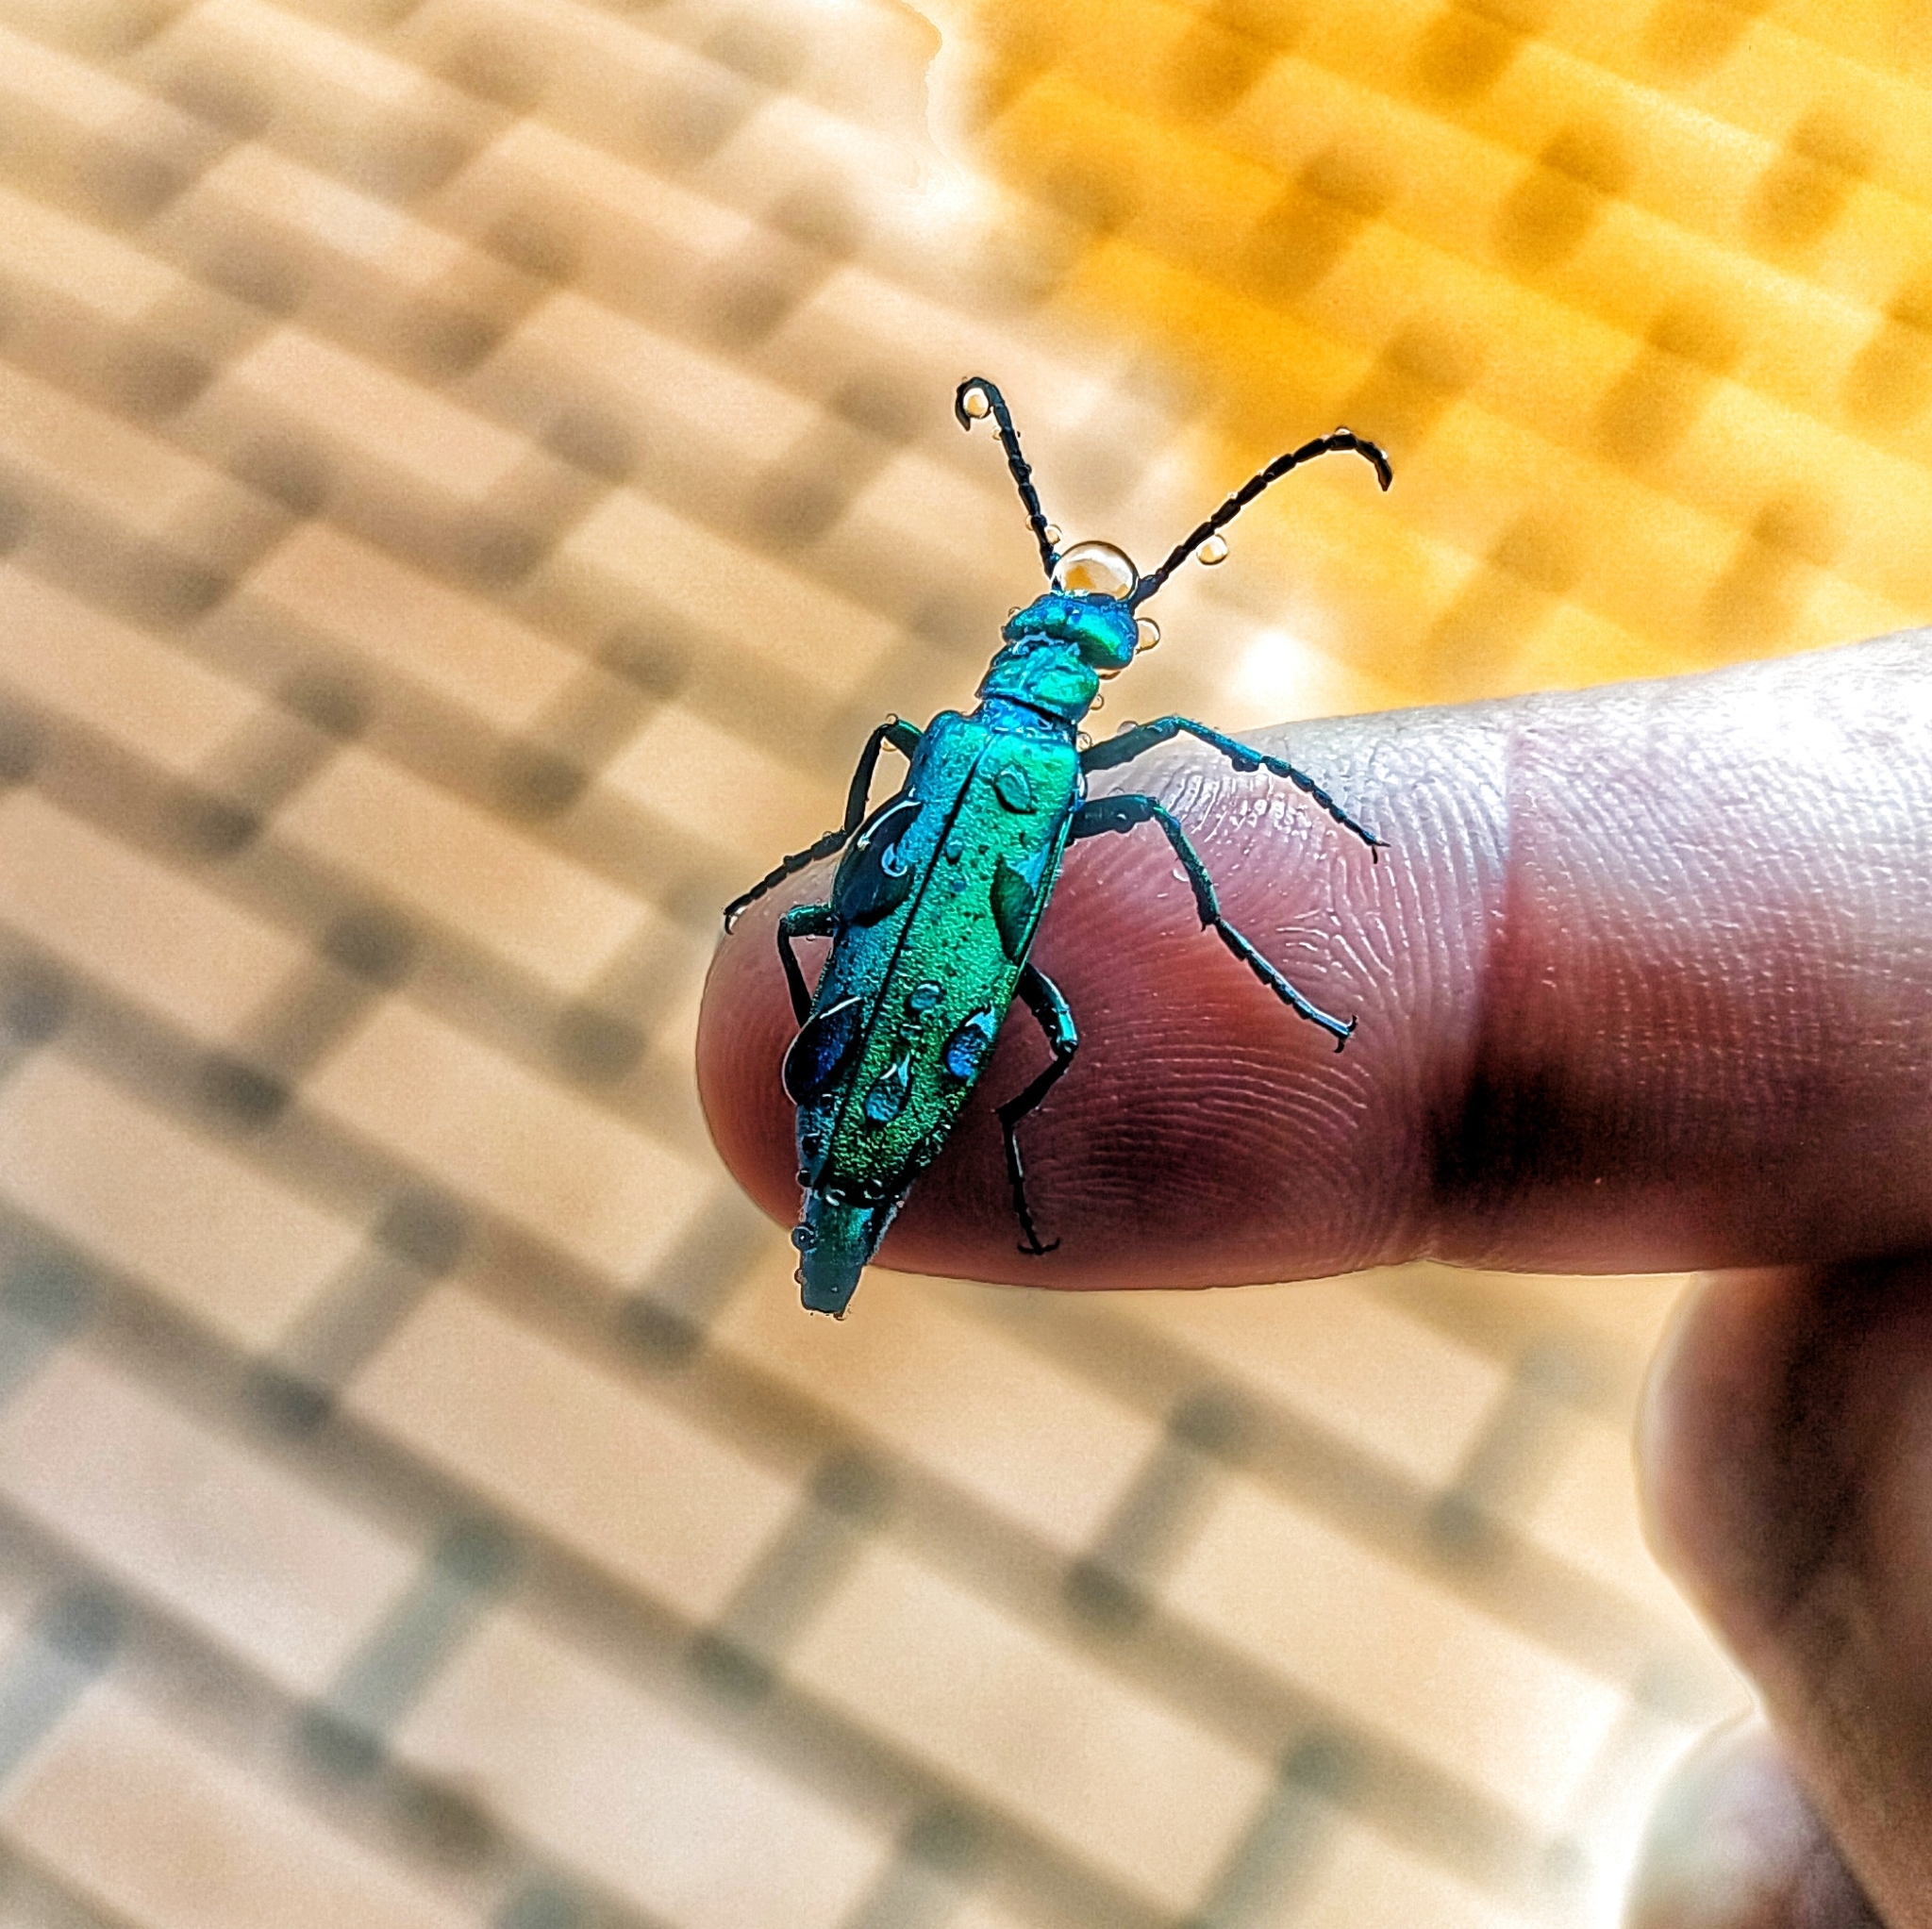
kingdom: Animalia
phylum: Arthropoda
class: Insecta
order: Coleoptera
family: Meloidae
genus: Lytta
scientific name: Lytta vesicatoria
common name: Spanish fly
